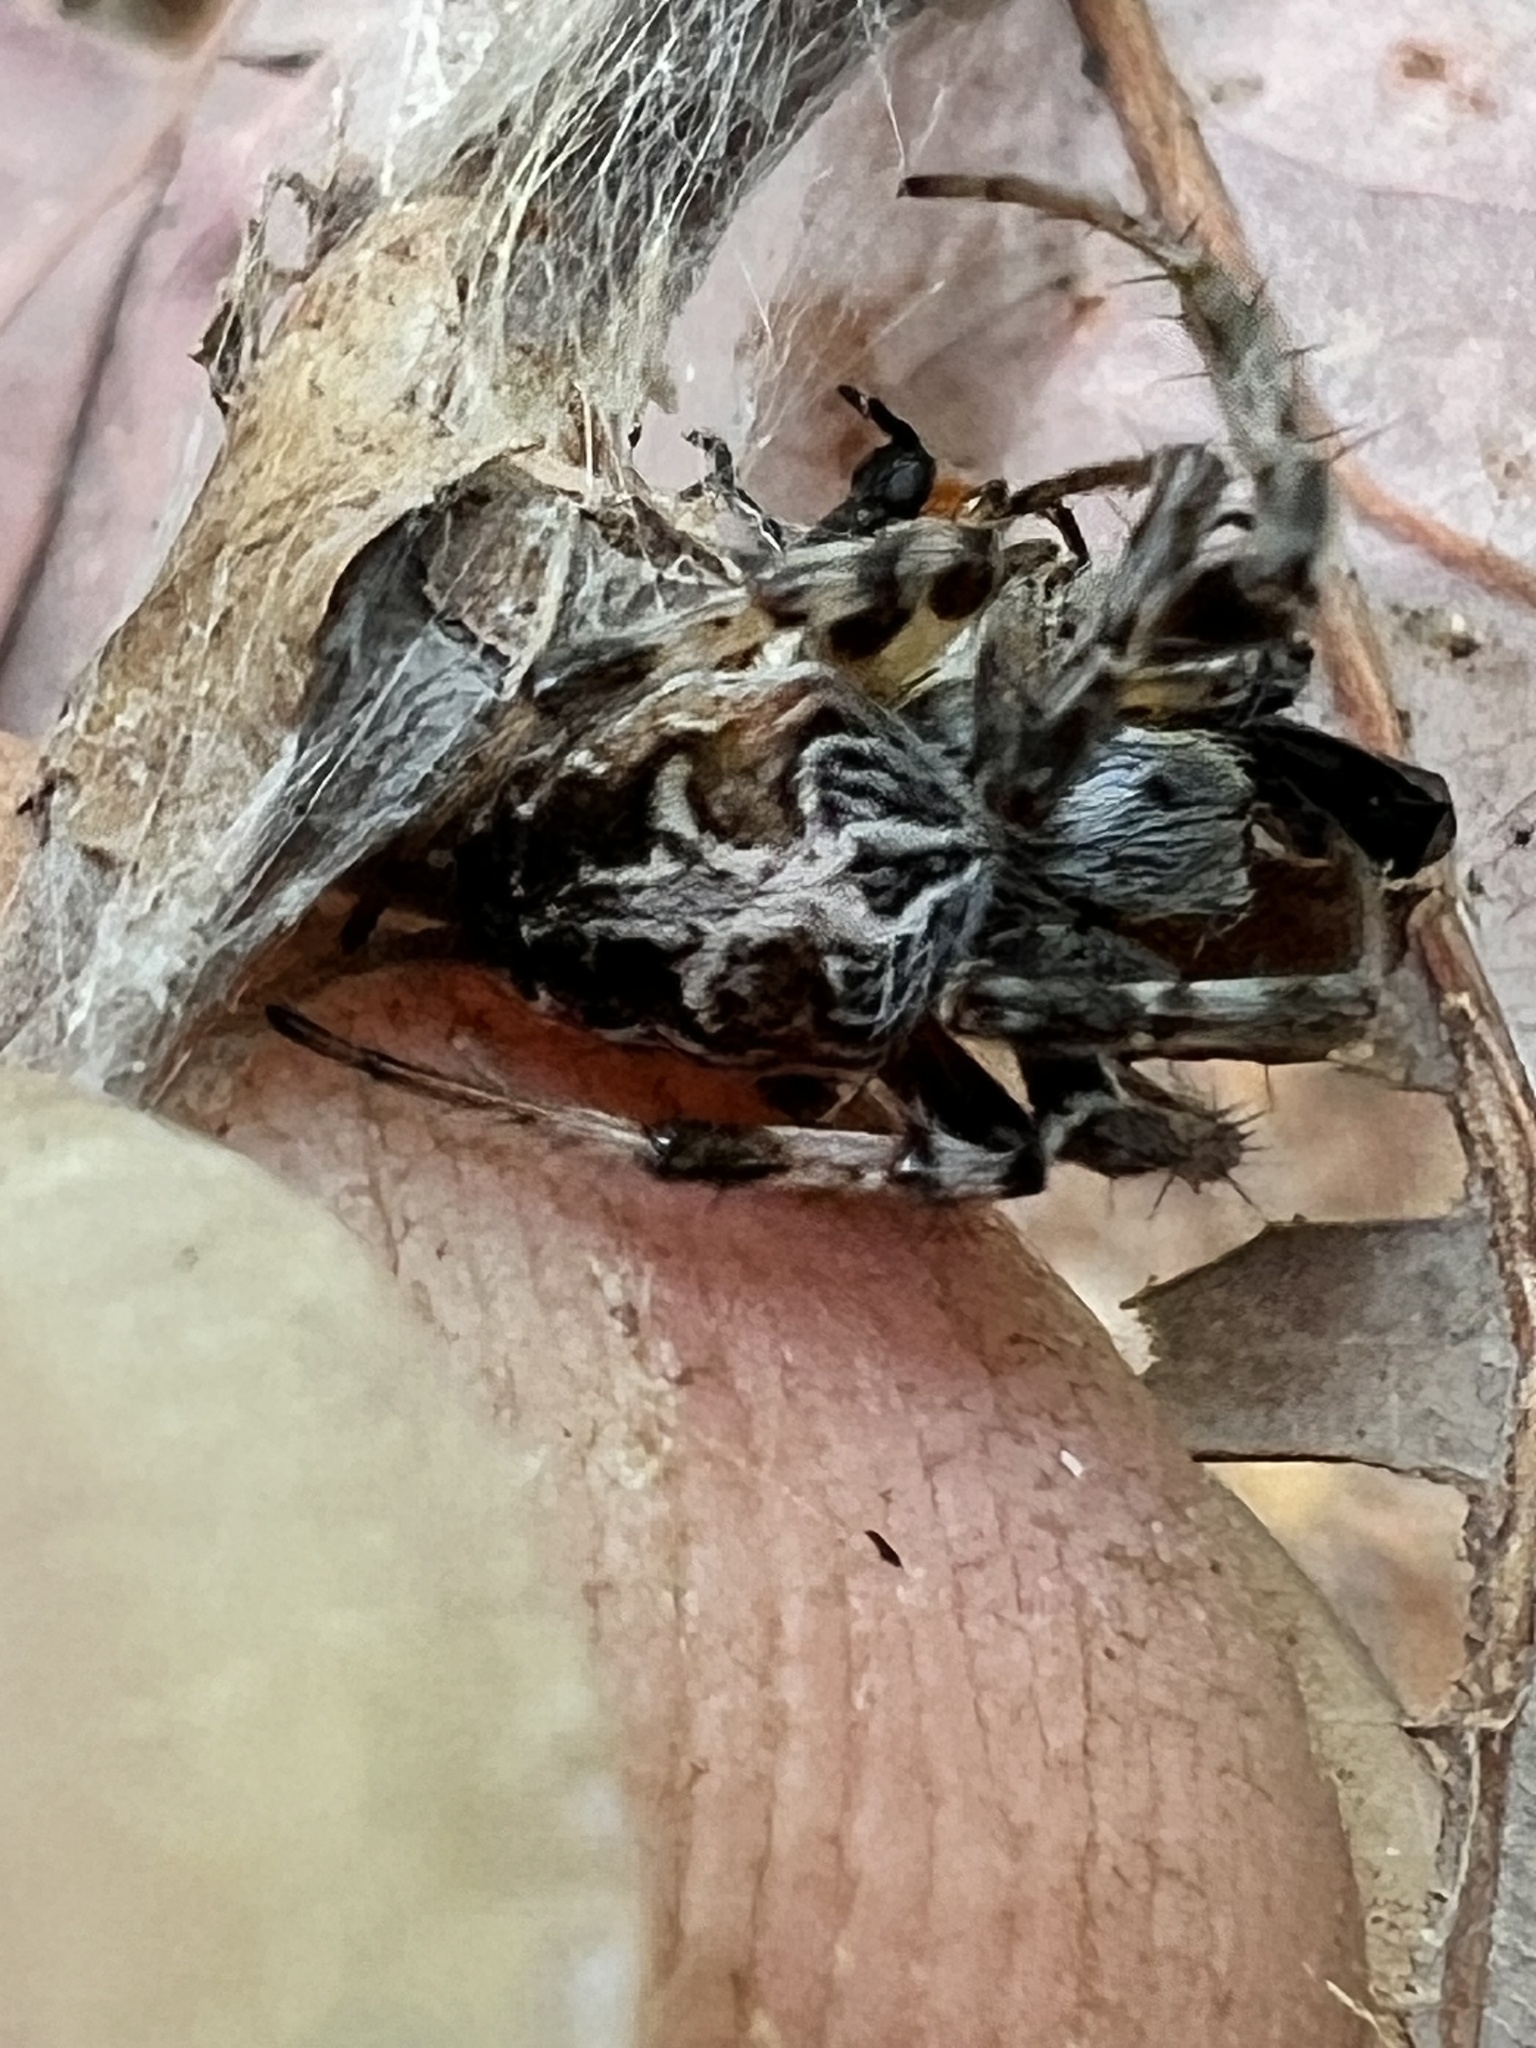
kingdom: Animalia
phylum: Arthropoda
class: Arachnida
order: Araneae
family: Araneidae
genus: Metepeira
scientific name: Metepeira labyrinthea
